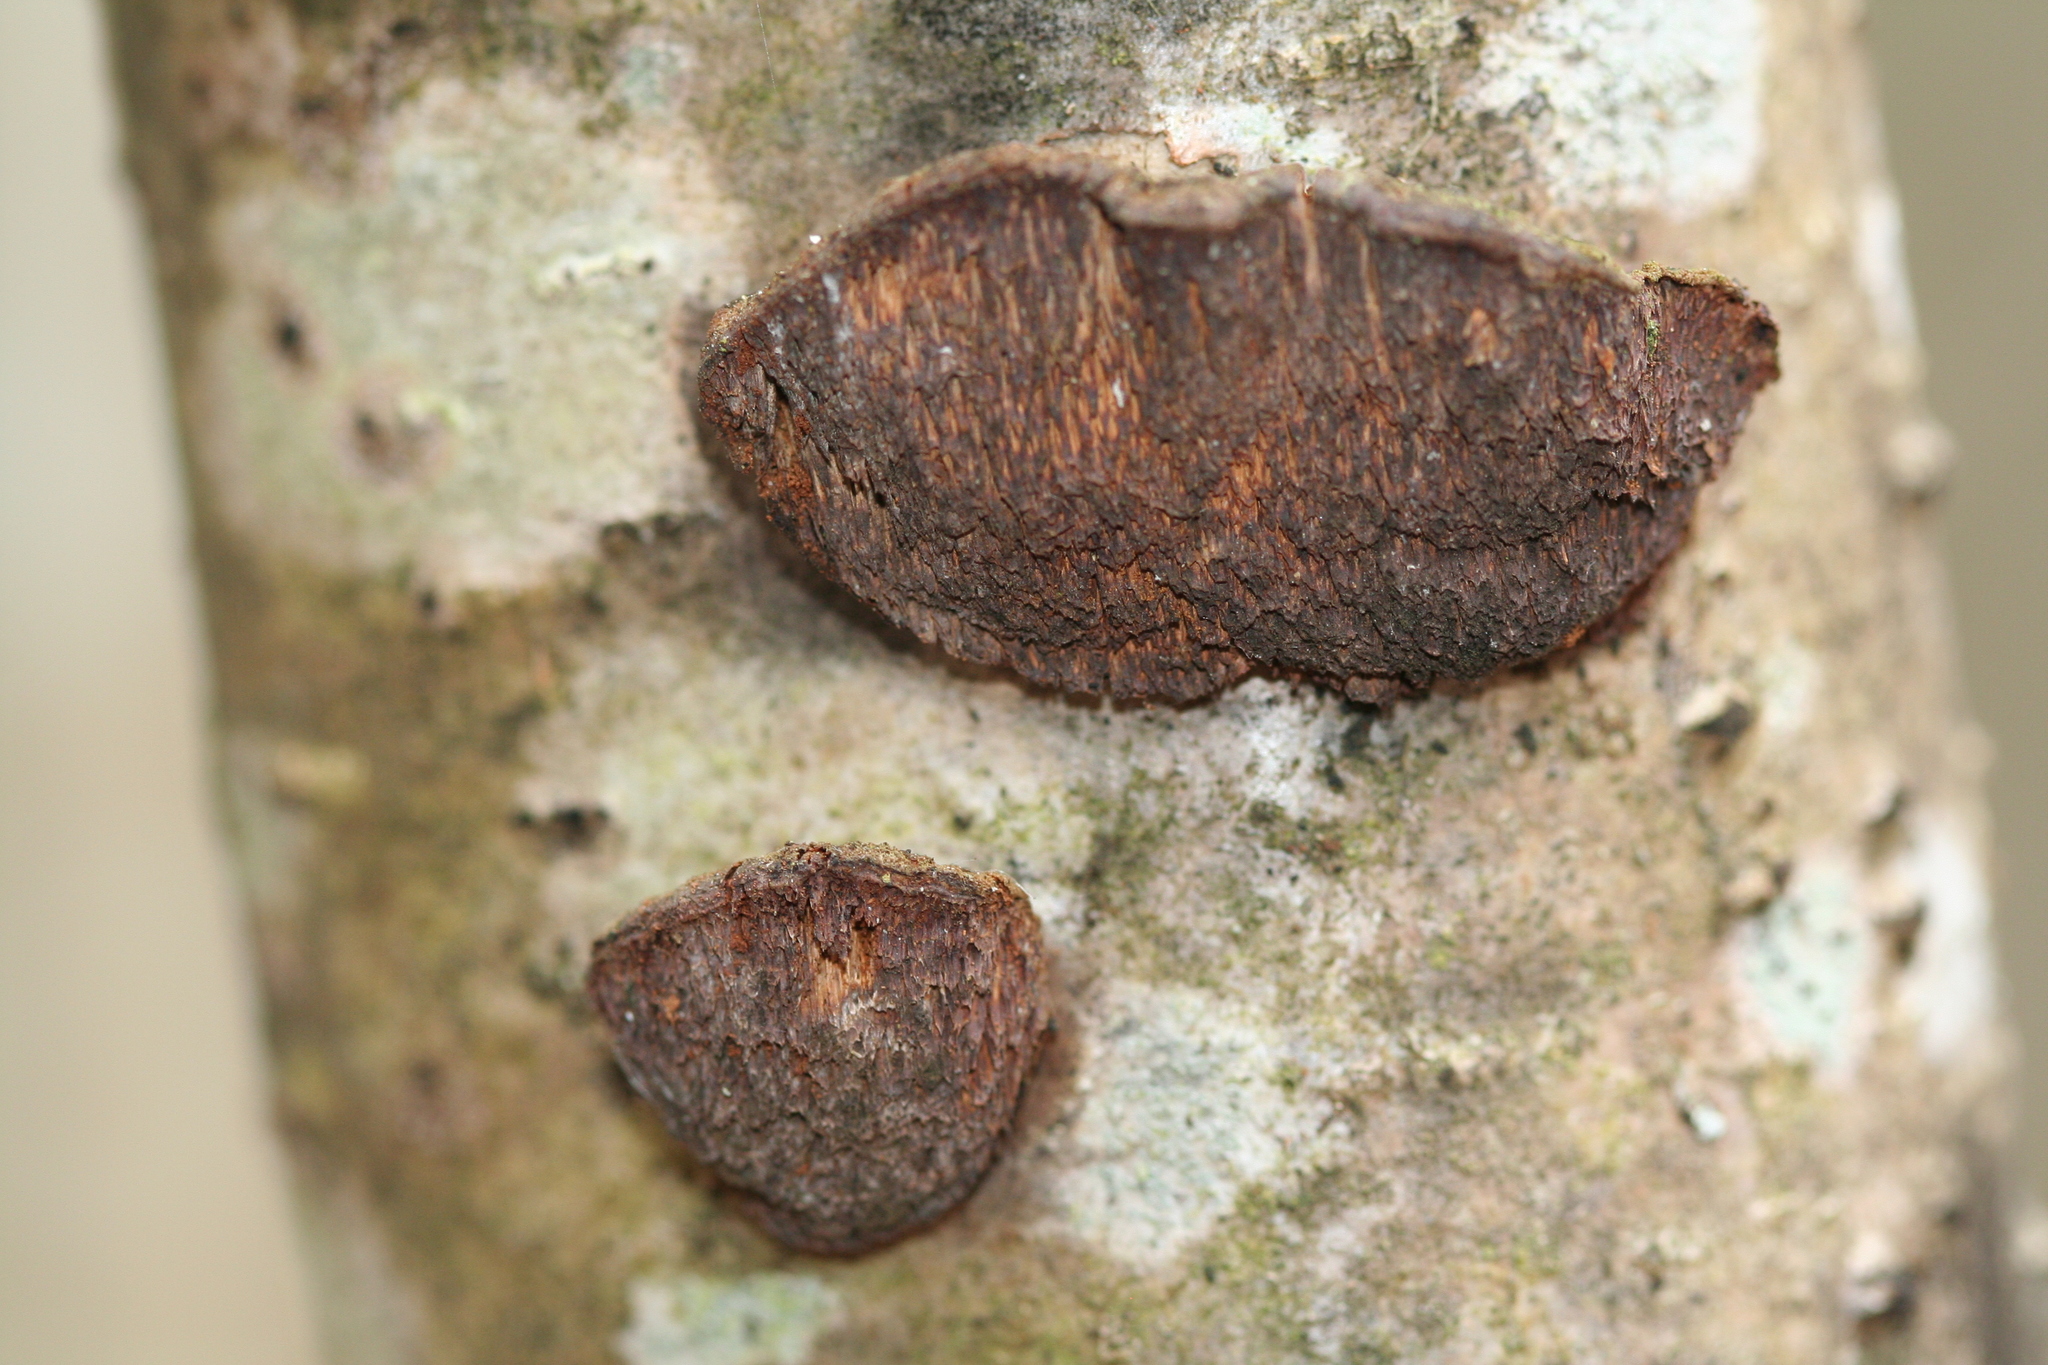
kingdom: Fungi
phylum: Basidiomycota
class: Agaricomycetes
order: Hymenochaetales
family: Hymenochaetaceae
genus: Xanthoporia
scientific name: Xanthoporia radiata
